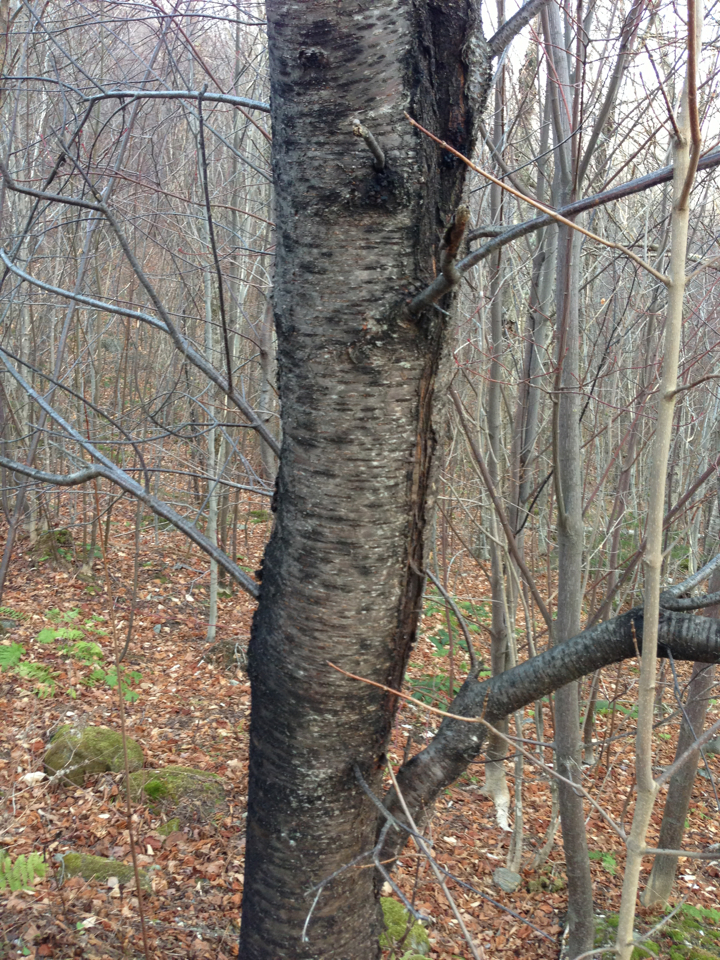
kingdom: Plantae
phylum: Tracheophyta
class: Magnoliopsida
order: Rosales
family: Rosaceae
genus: Prunus
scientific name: Prunus pensylvanica
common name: Pin cherry
